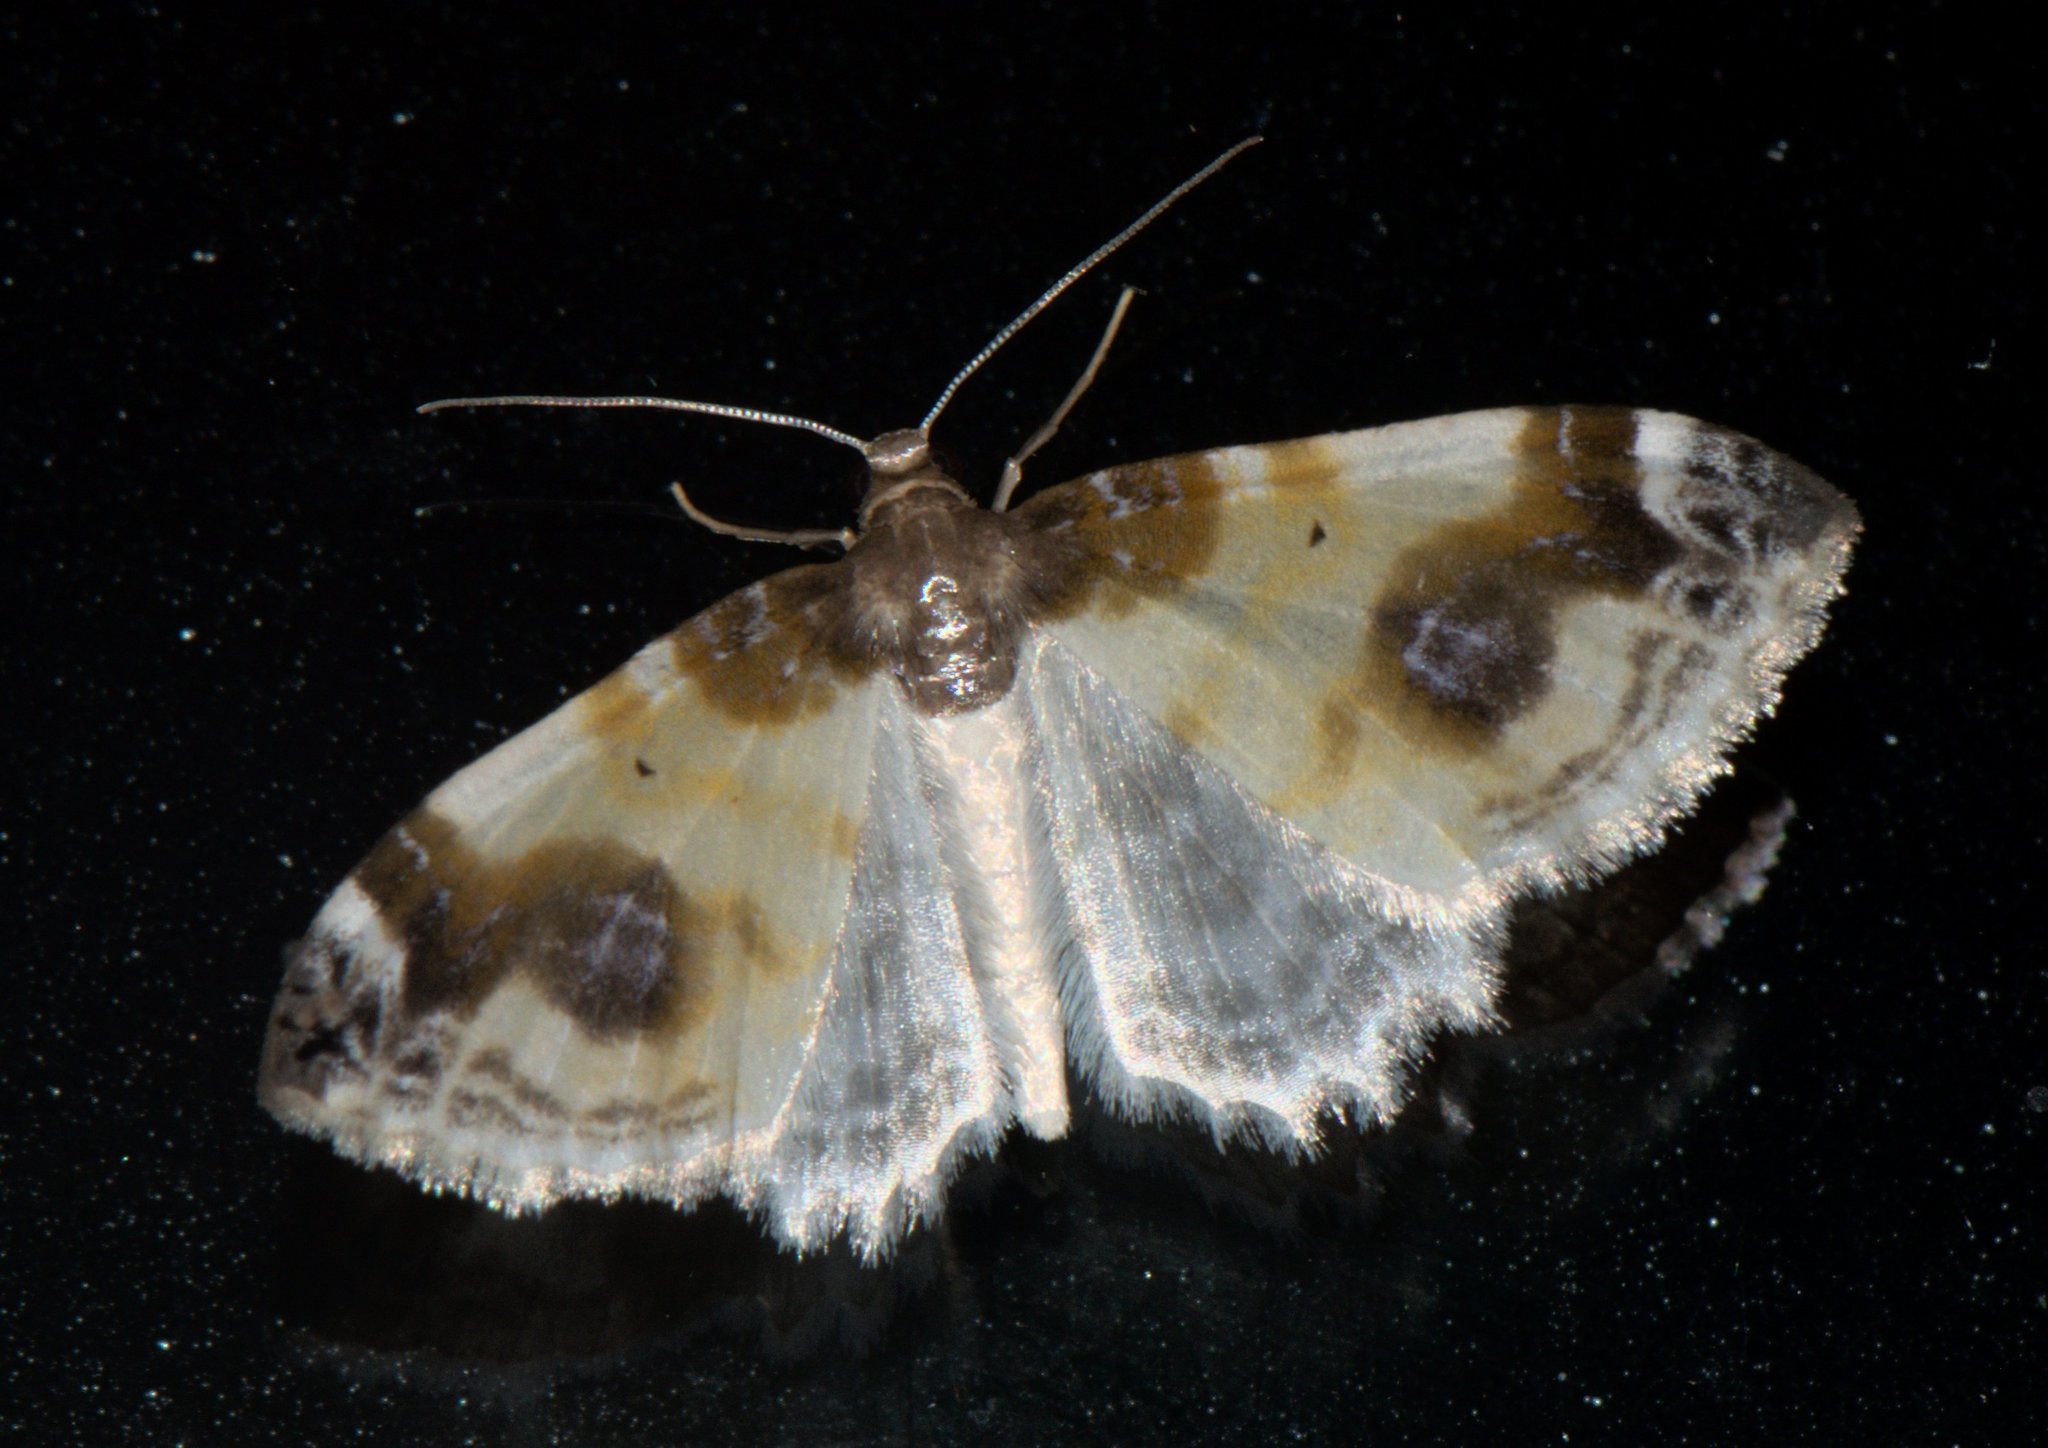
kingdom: Animalia
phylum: Arthropoda
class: Insecta
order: Lepidoptera
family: Geometridae
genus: Agnibesa
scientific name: Agnibesa pictaria
